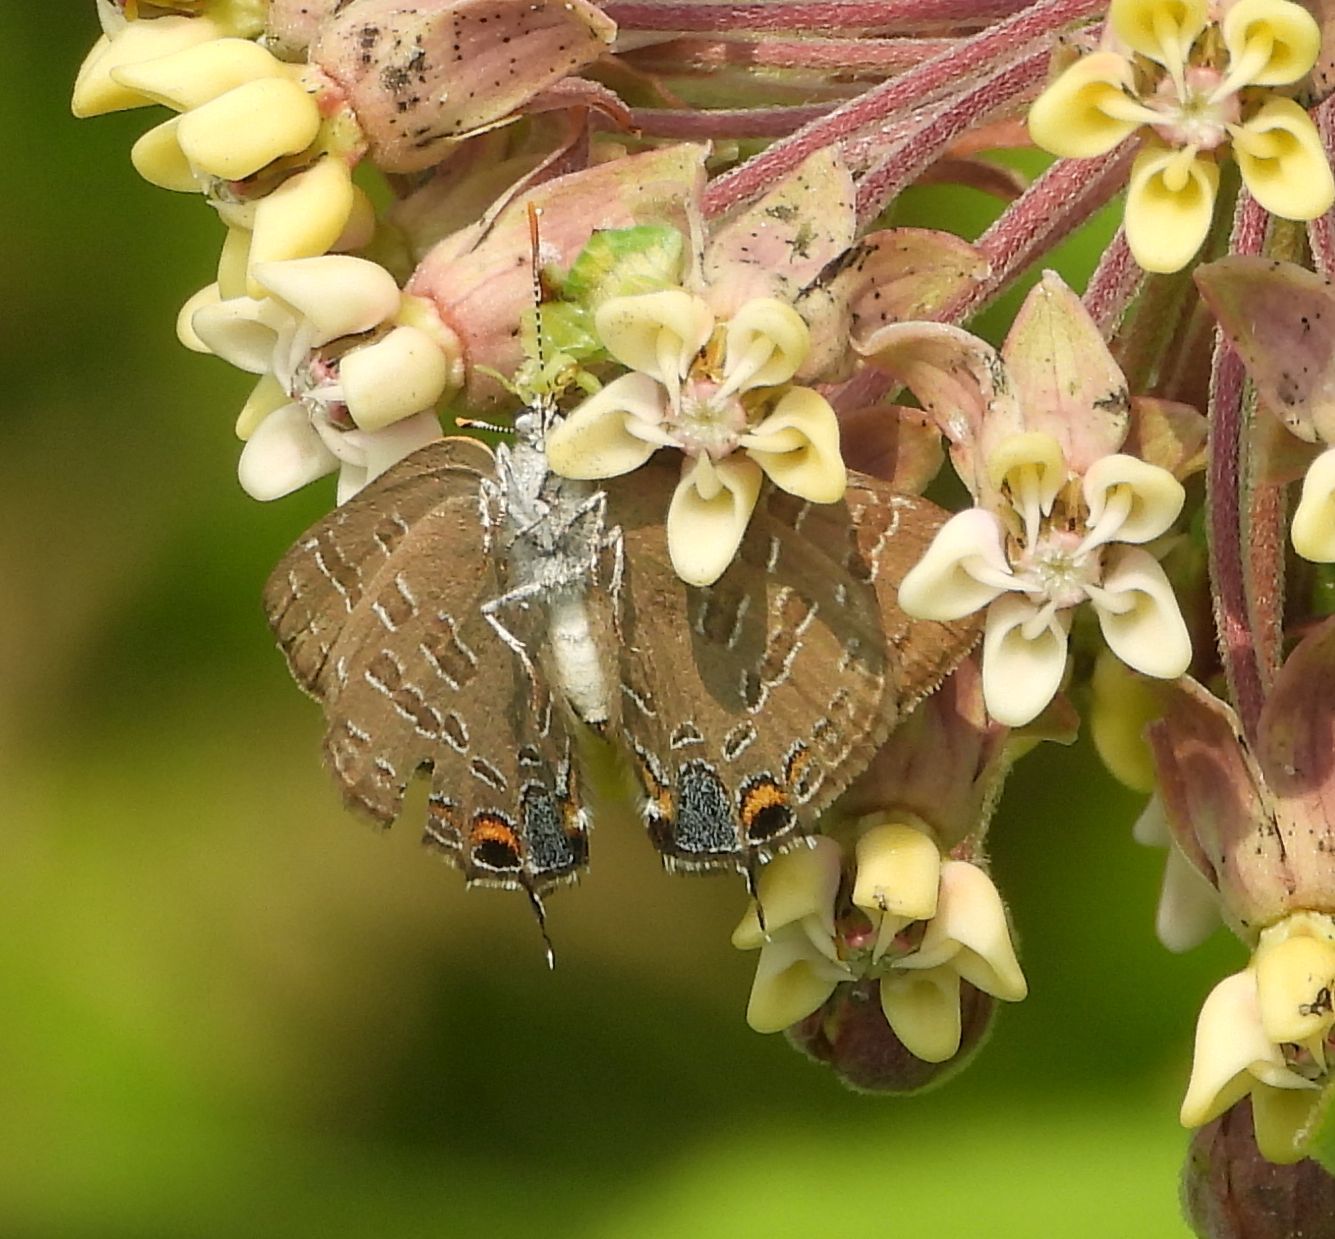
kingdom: Animalia
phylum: Arthropoda
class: Insecta
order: Lepidoptera
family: Lycaenidae
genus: Strymon
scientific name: Strymon caryaevorus
